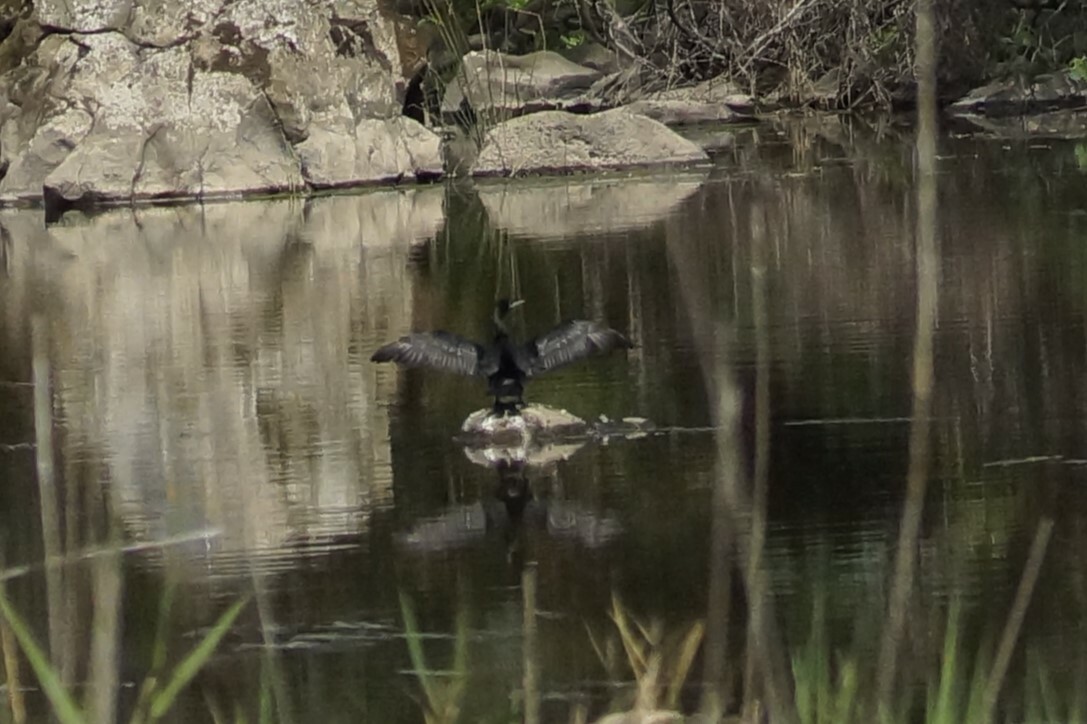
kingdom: Animalia
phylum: Chordata
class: Aves
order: Suliformes
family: Phalacrocoracidae
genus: Phalacrocorax
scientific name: Phalacrocorax sulcirostris
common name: Little black cormorant
